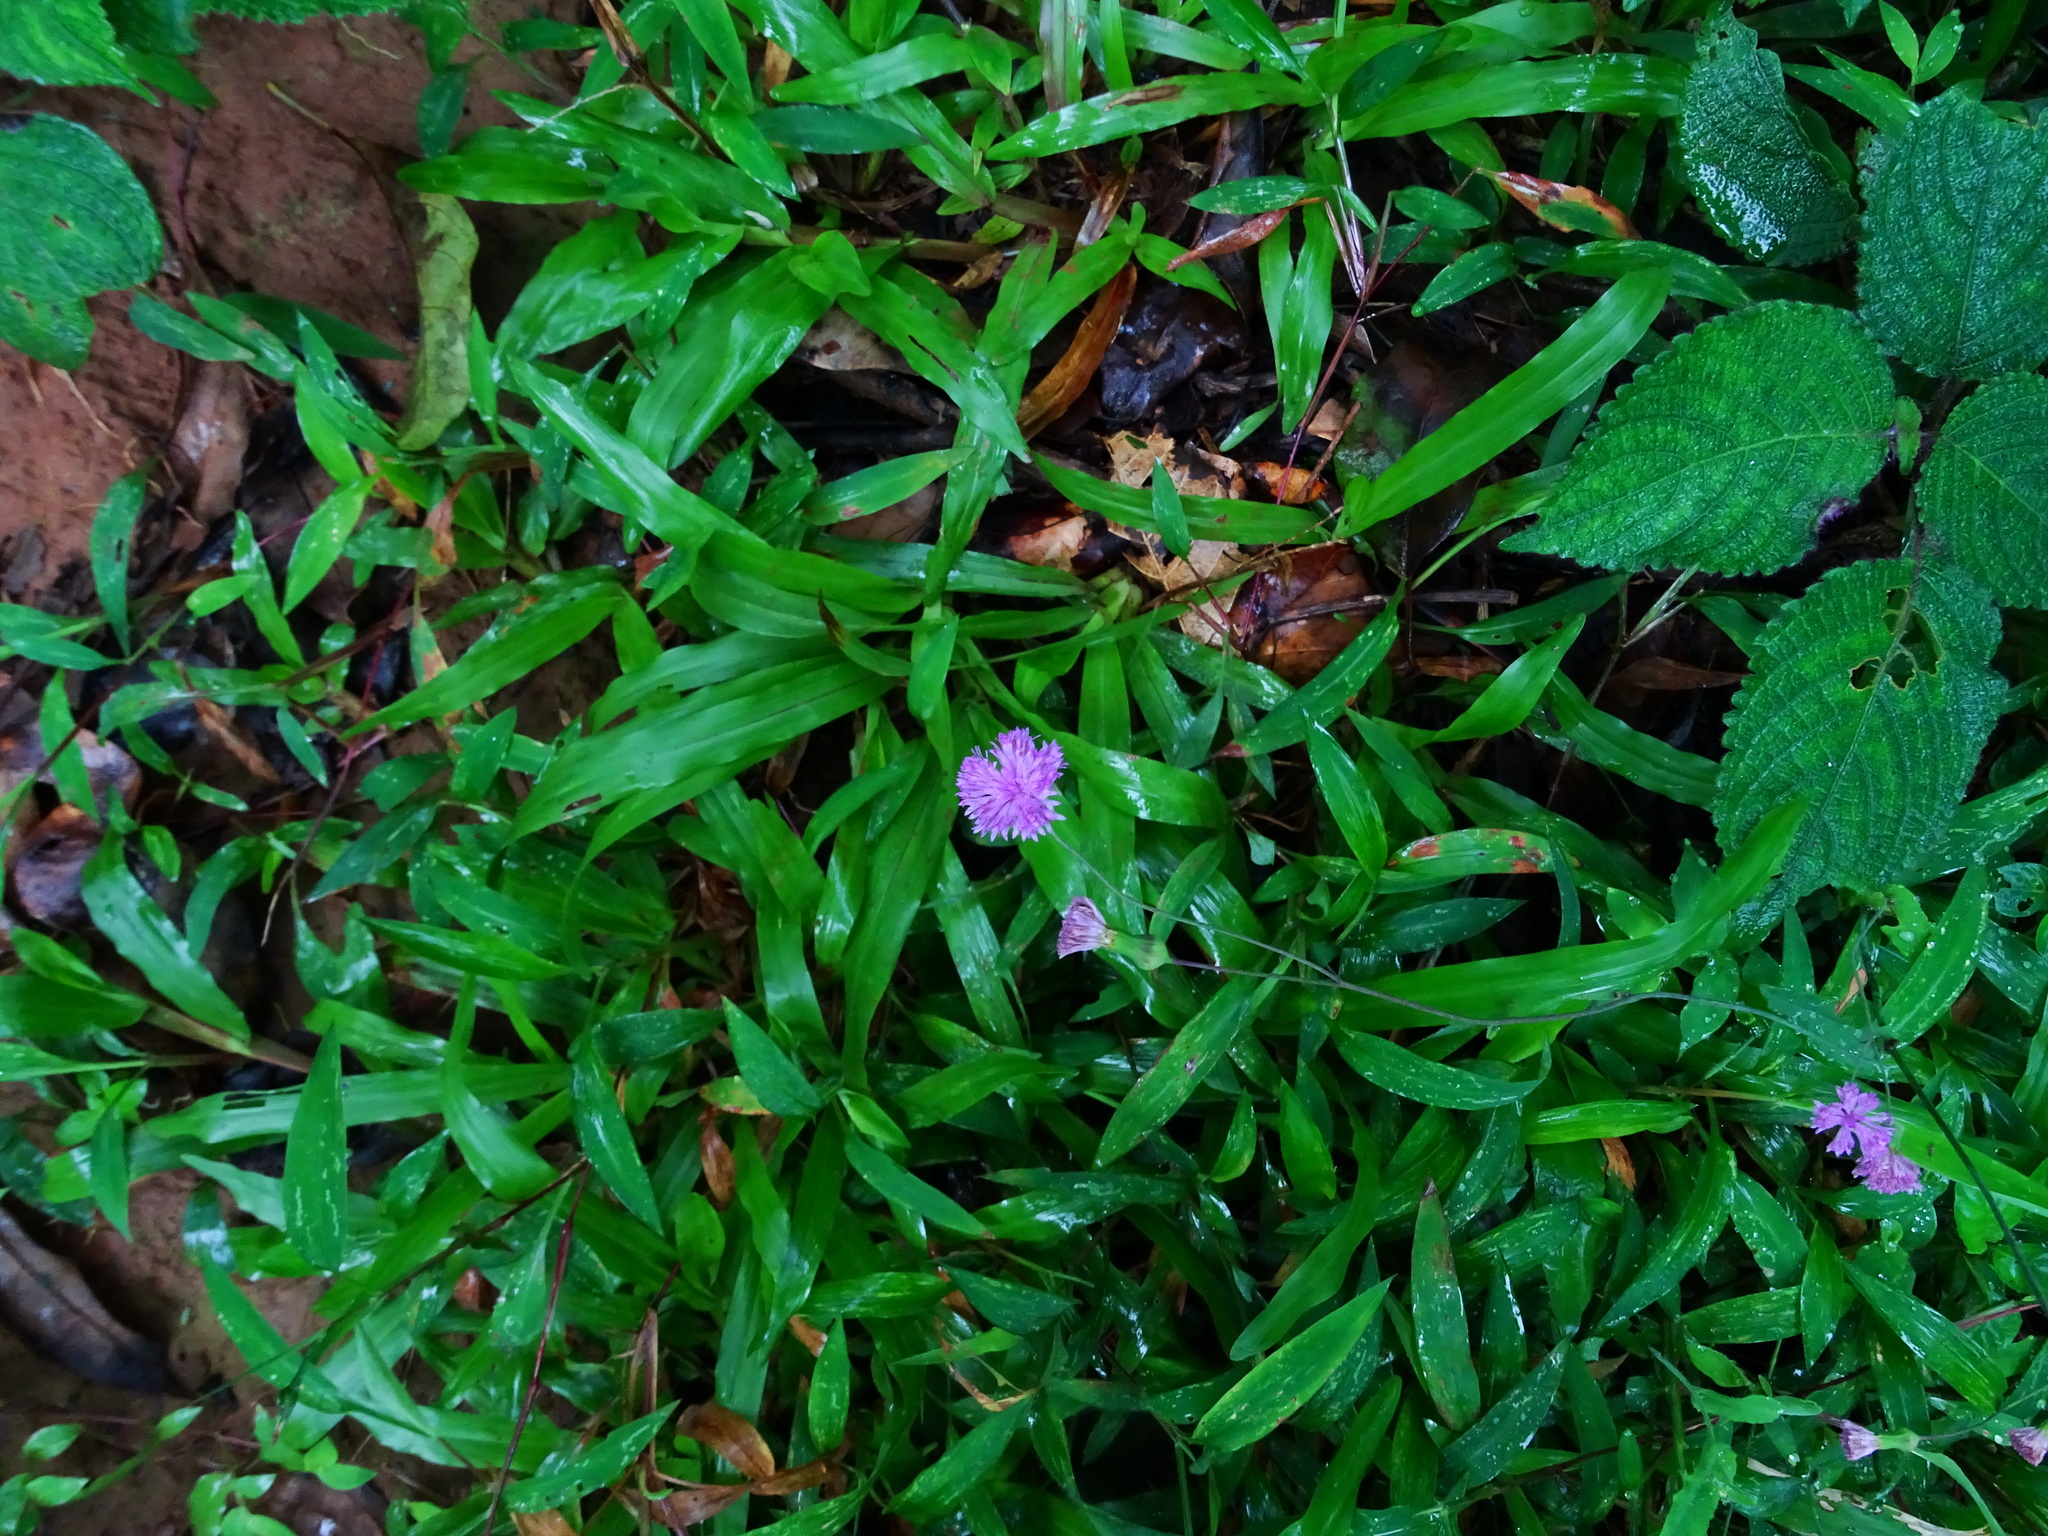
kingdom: Plantae
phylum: Tracheophyta
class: Magnoliopsida
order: Lamiales
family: Acanthaceae
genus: Strobilanthes
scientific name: Strobilanthes heyneana
